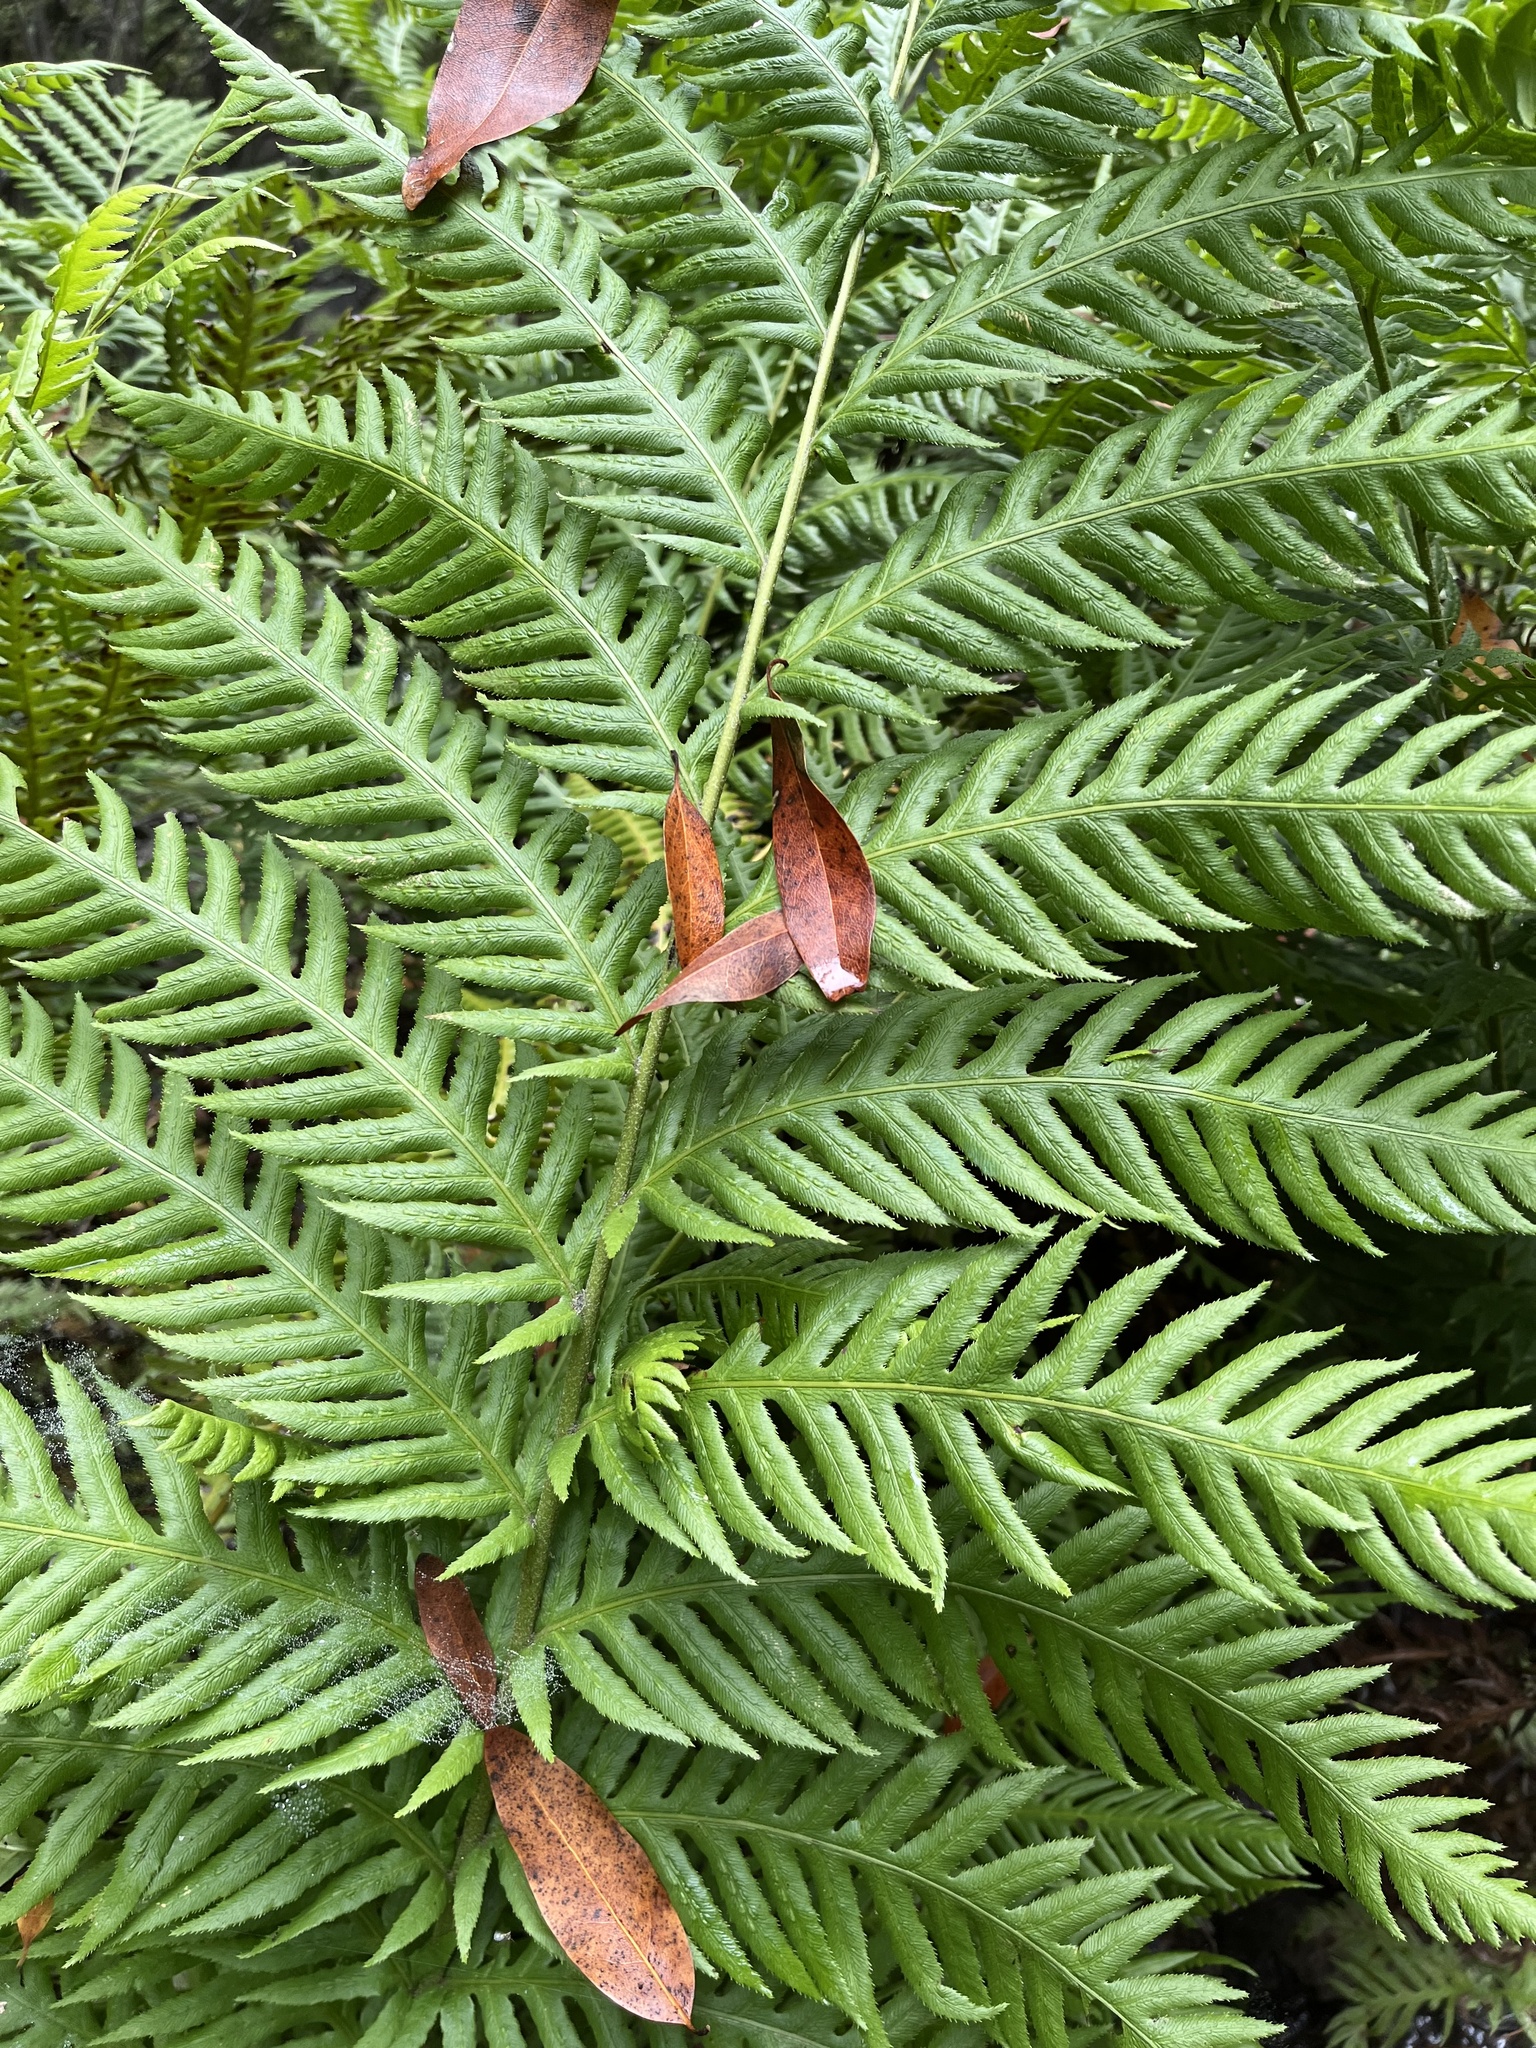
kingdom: Plantae
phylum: Tracheophyta
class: Polypodiopsida
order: Polypodiales
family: Blechnaceae
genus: Woodwardia
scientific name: Woodwardia fimbriata
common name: Giant chain fern
